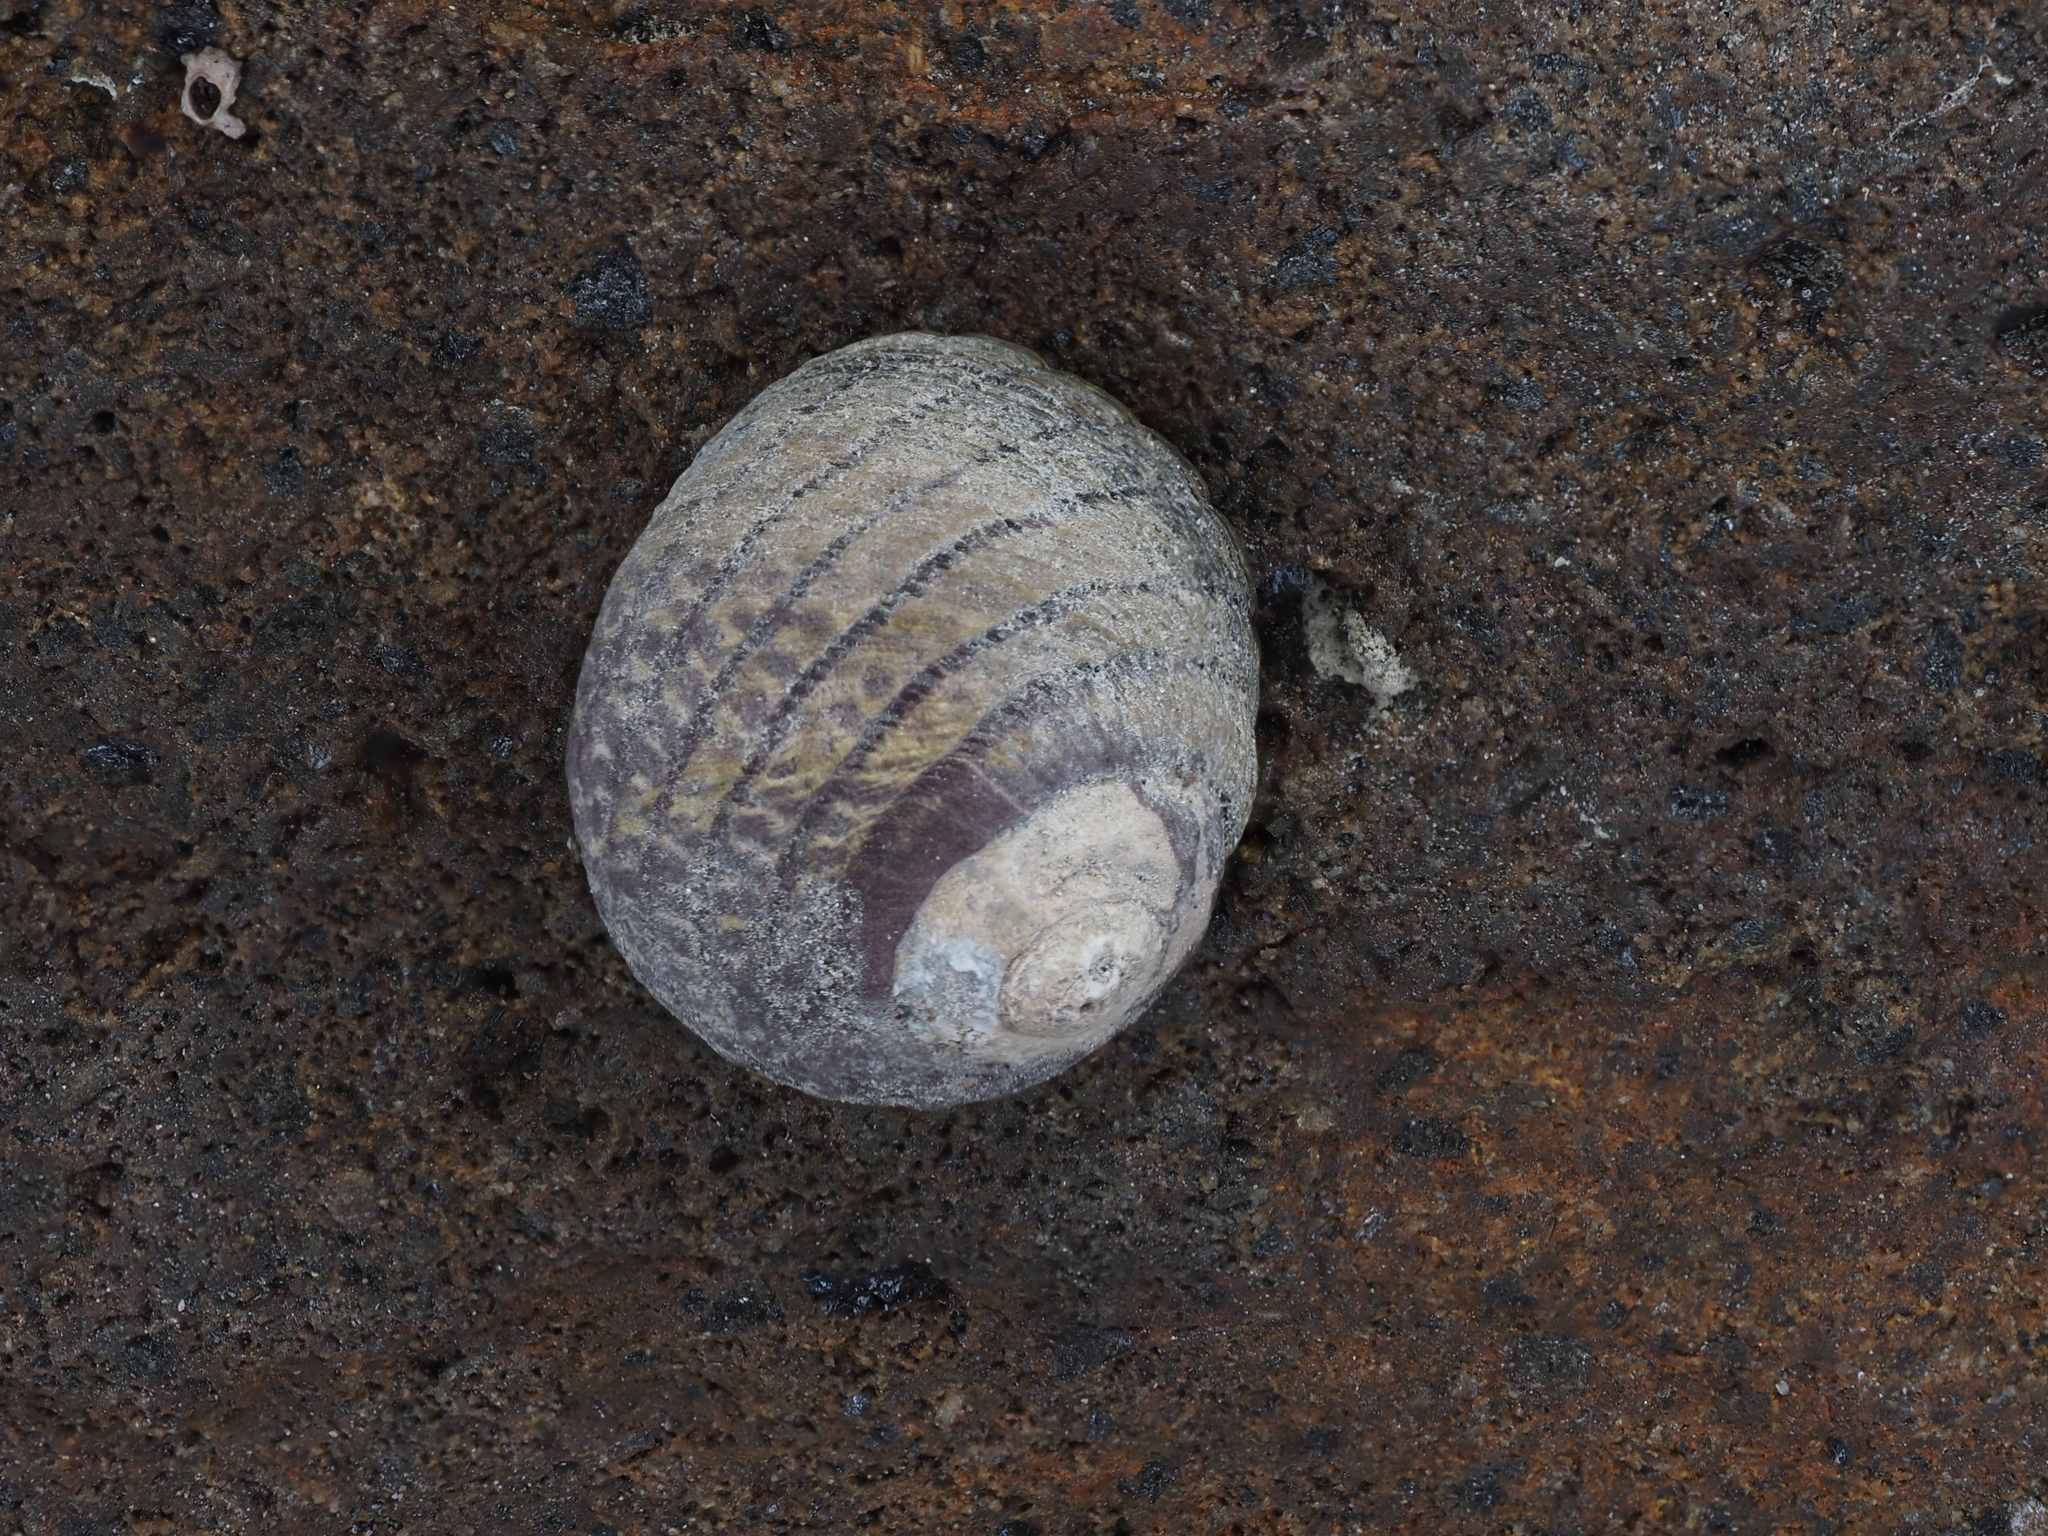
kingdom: Animalia
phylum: Mollusca
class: Gastropoda
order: Trochida
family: Trochidae
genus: Diloma
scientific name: Diloma aethiops
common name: Scorched monodont
